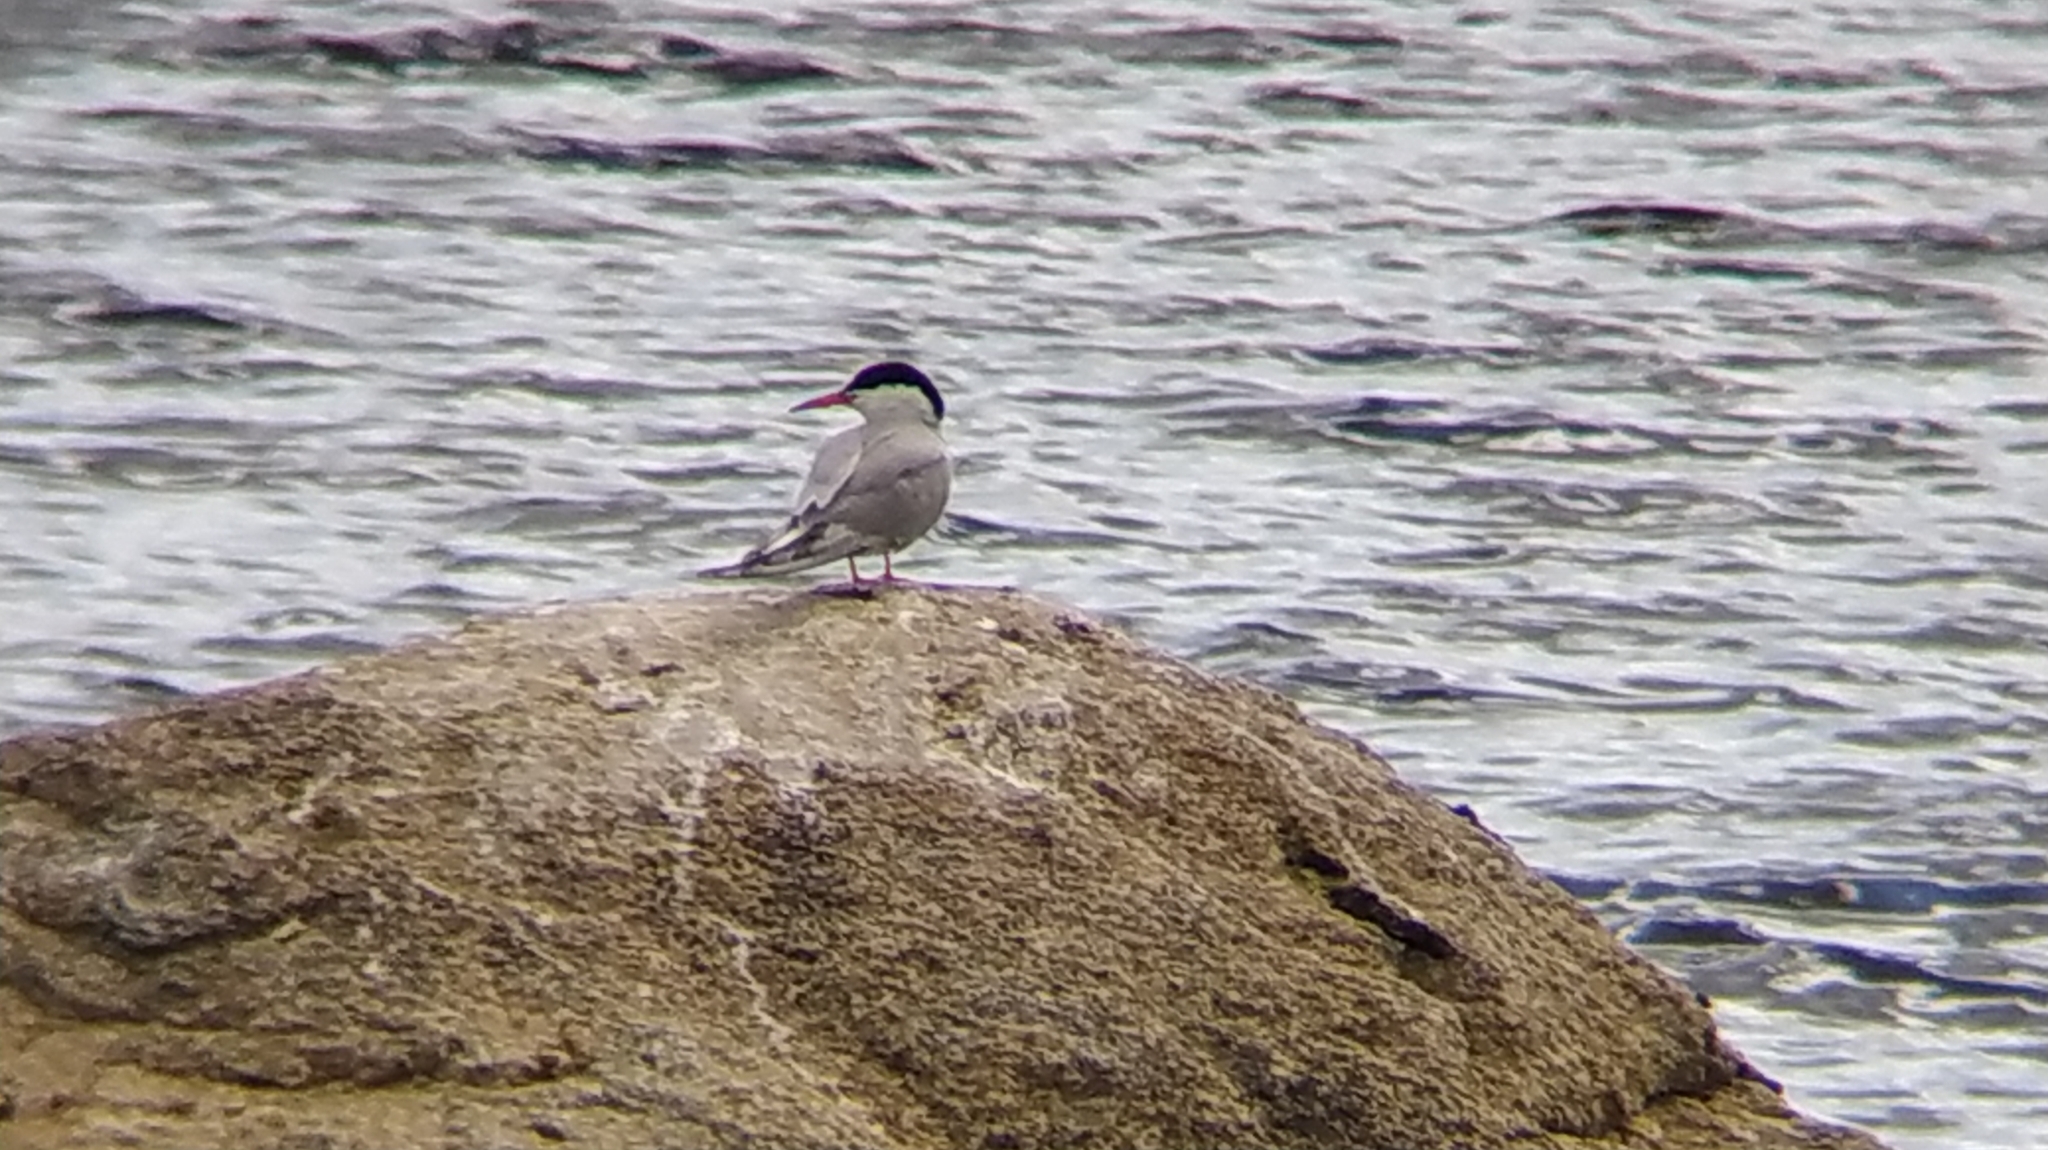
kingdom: Animalia
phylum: Chordata
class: Aves
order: Charadriiformes
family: Laridae
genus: Sterna
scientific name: Sterna hirundo
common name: Common tern
